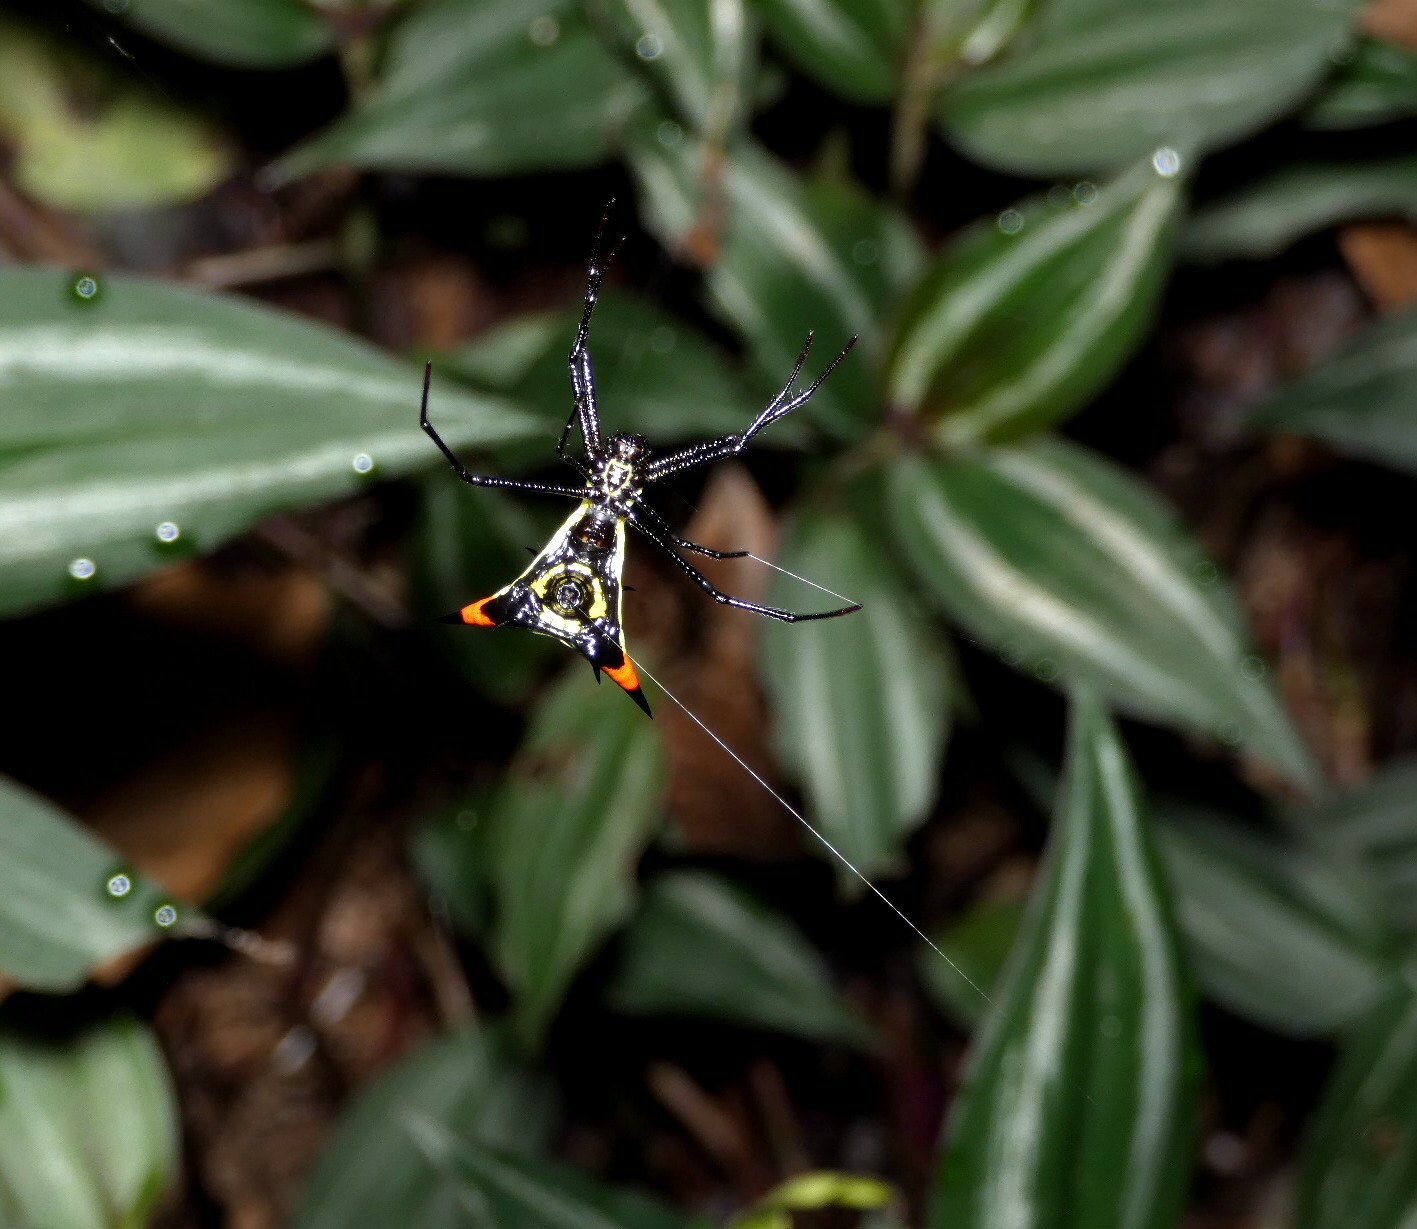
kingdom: Animalia
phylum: Arthropoda
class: Arachnida
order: Araneae
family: Araneidae
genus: Micrathena
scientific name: Micrathena schreibersi
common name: Orb weavers
